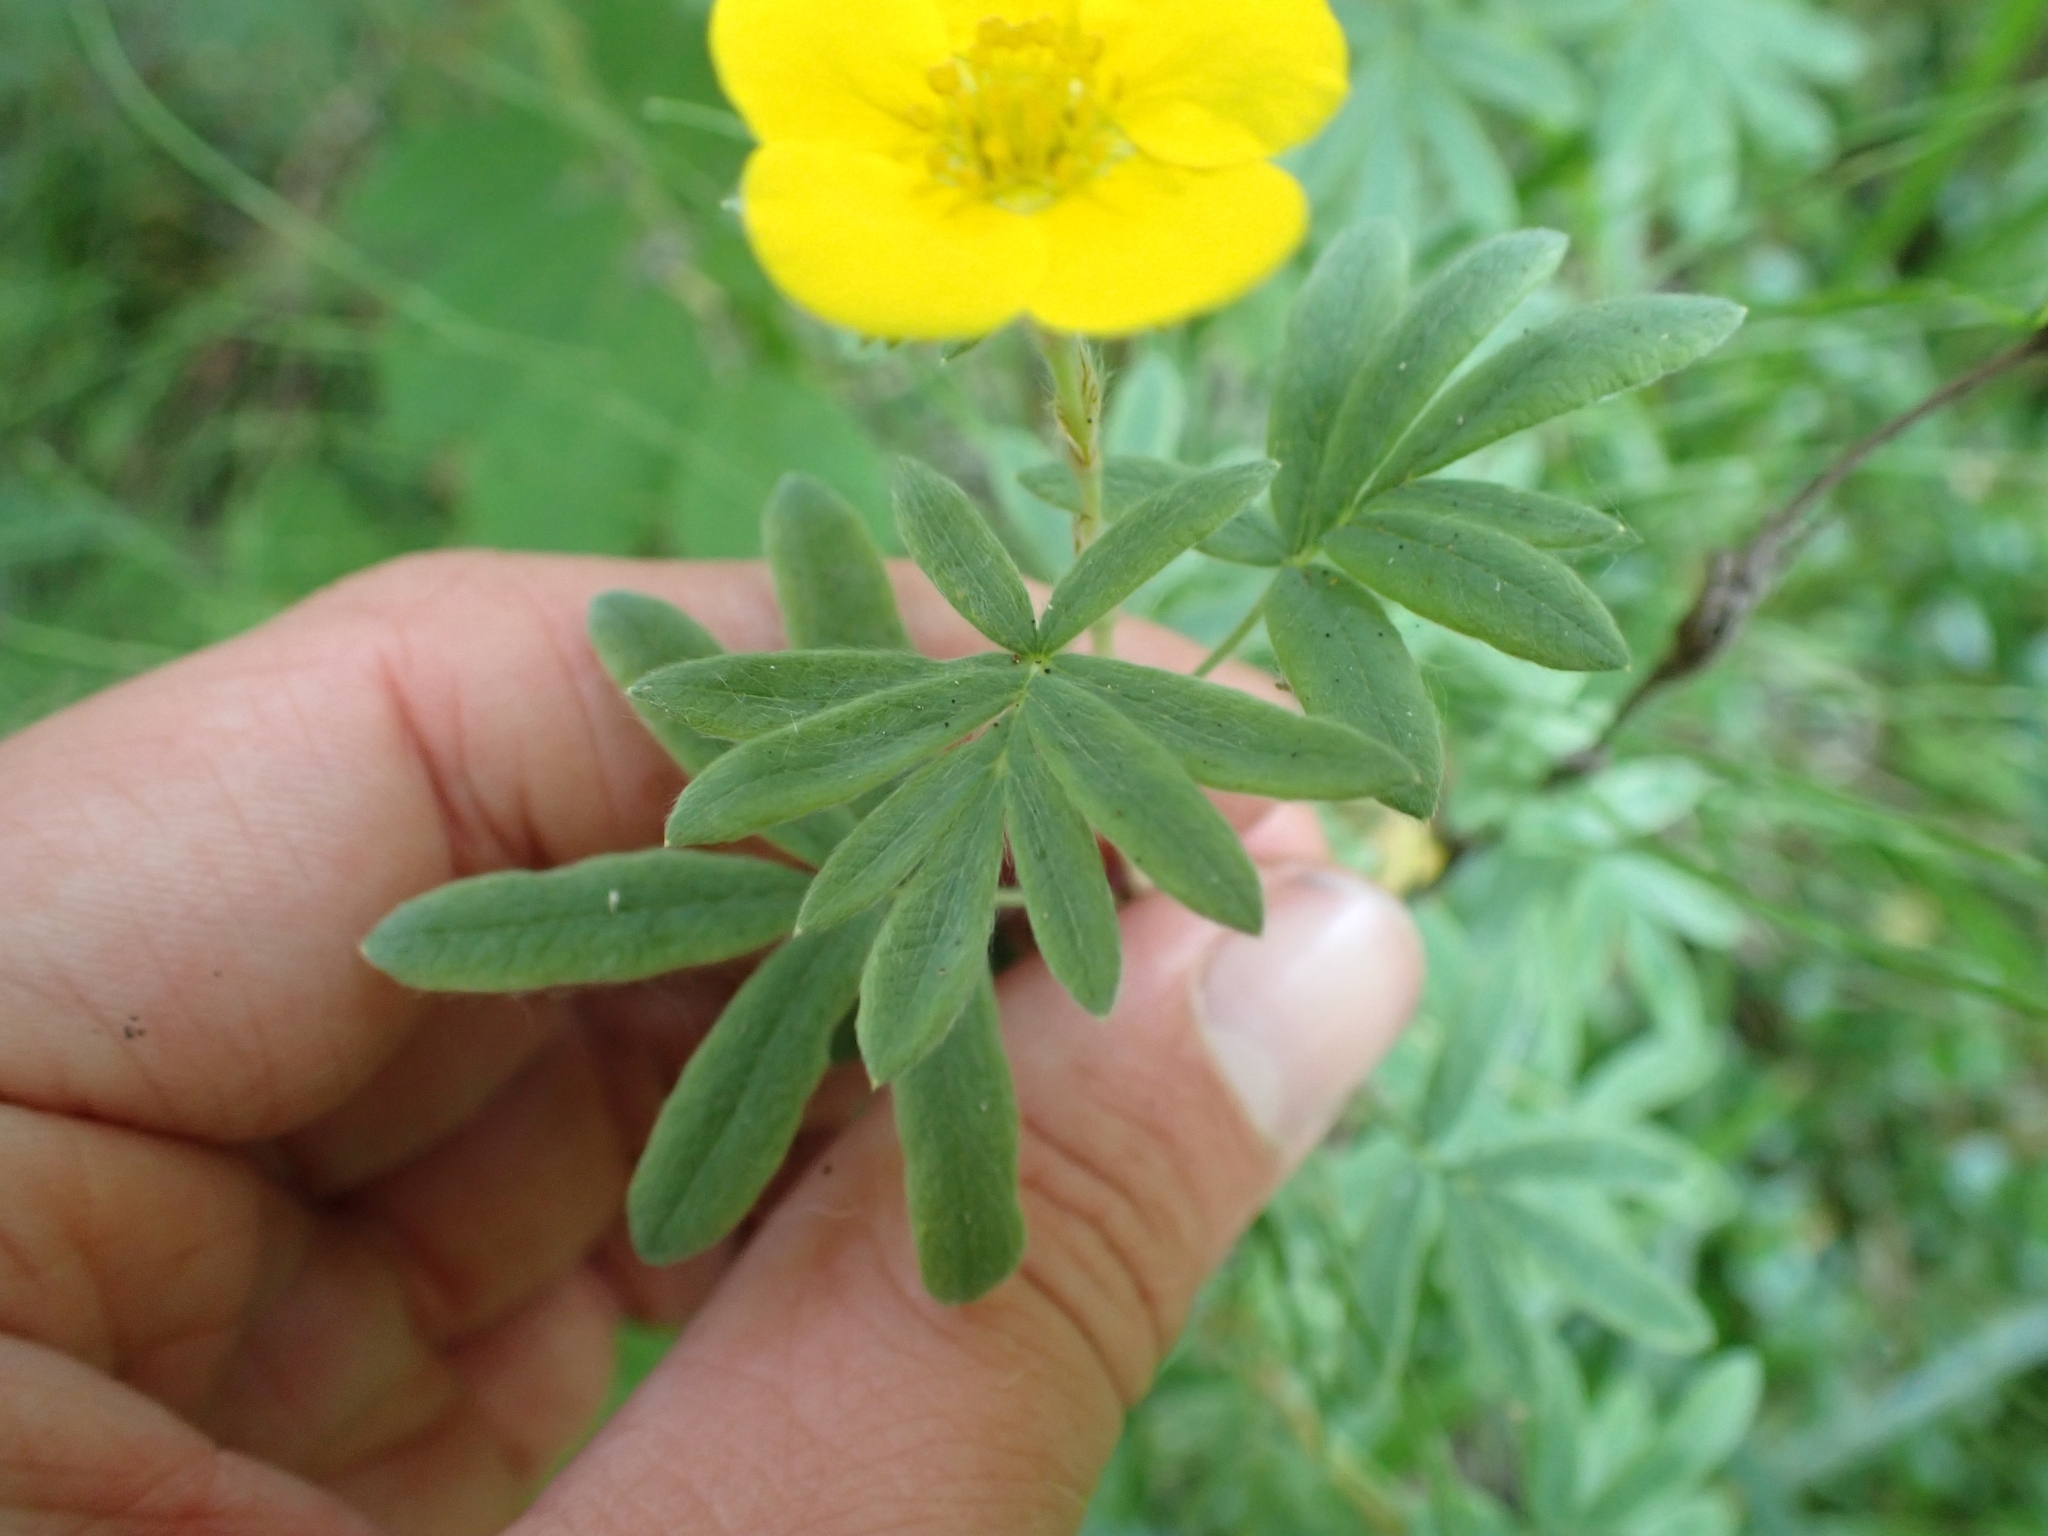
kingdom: Plantae
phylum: Tracheophyta
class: Magnoliopsida
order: Rosales
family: Rosaceae
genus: Dasiphora
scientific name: Dasiphora fruticosa
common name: Shrubby cinquefoil
